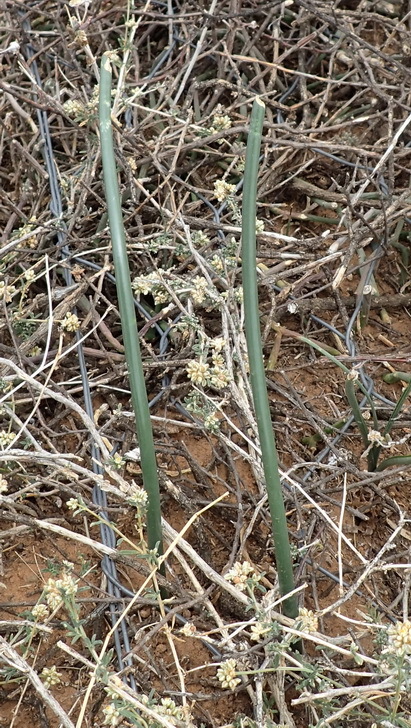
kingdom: Plantae
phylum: Tracheophyta
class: Liliopsida
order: Asparagales
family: Asparagaceae
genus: Drimia
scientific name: Drimia anomala
